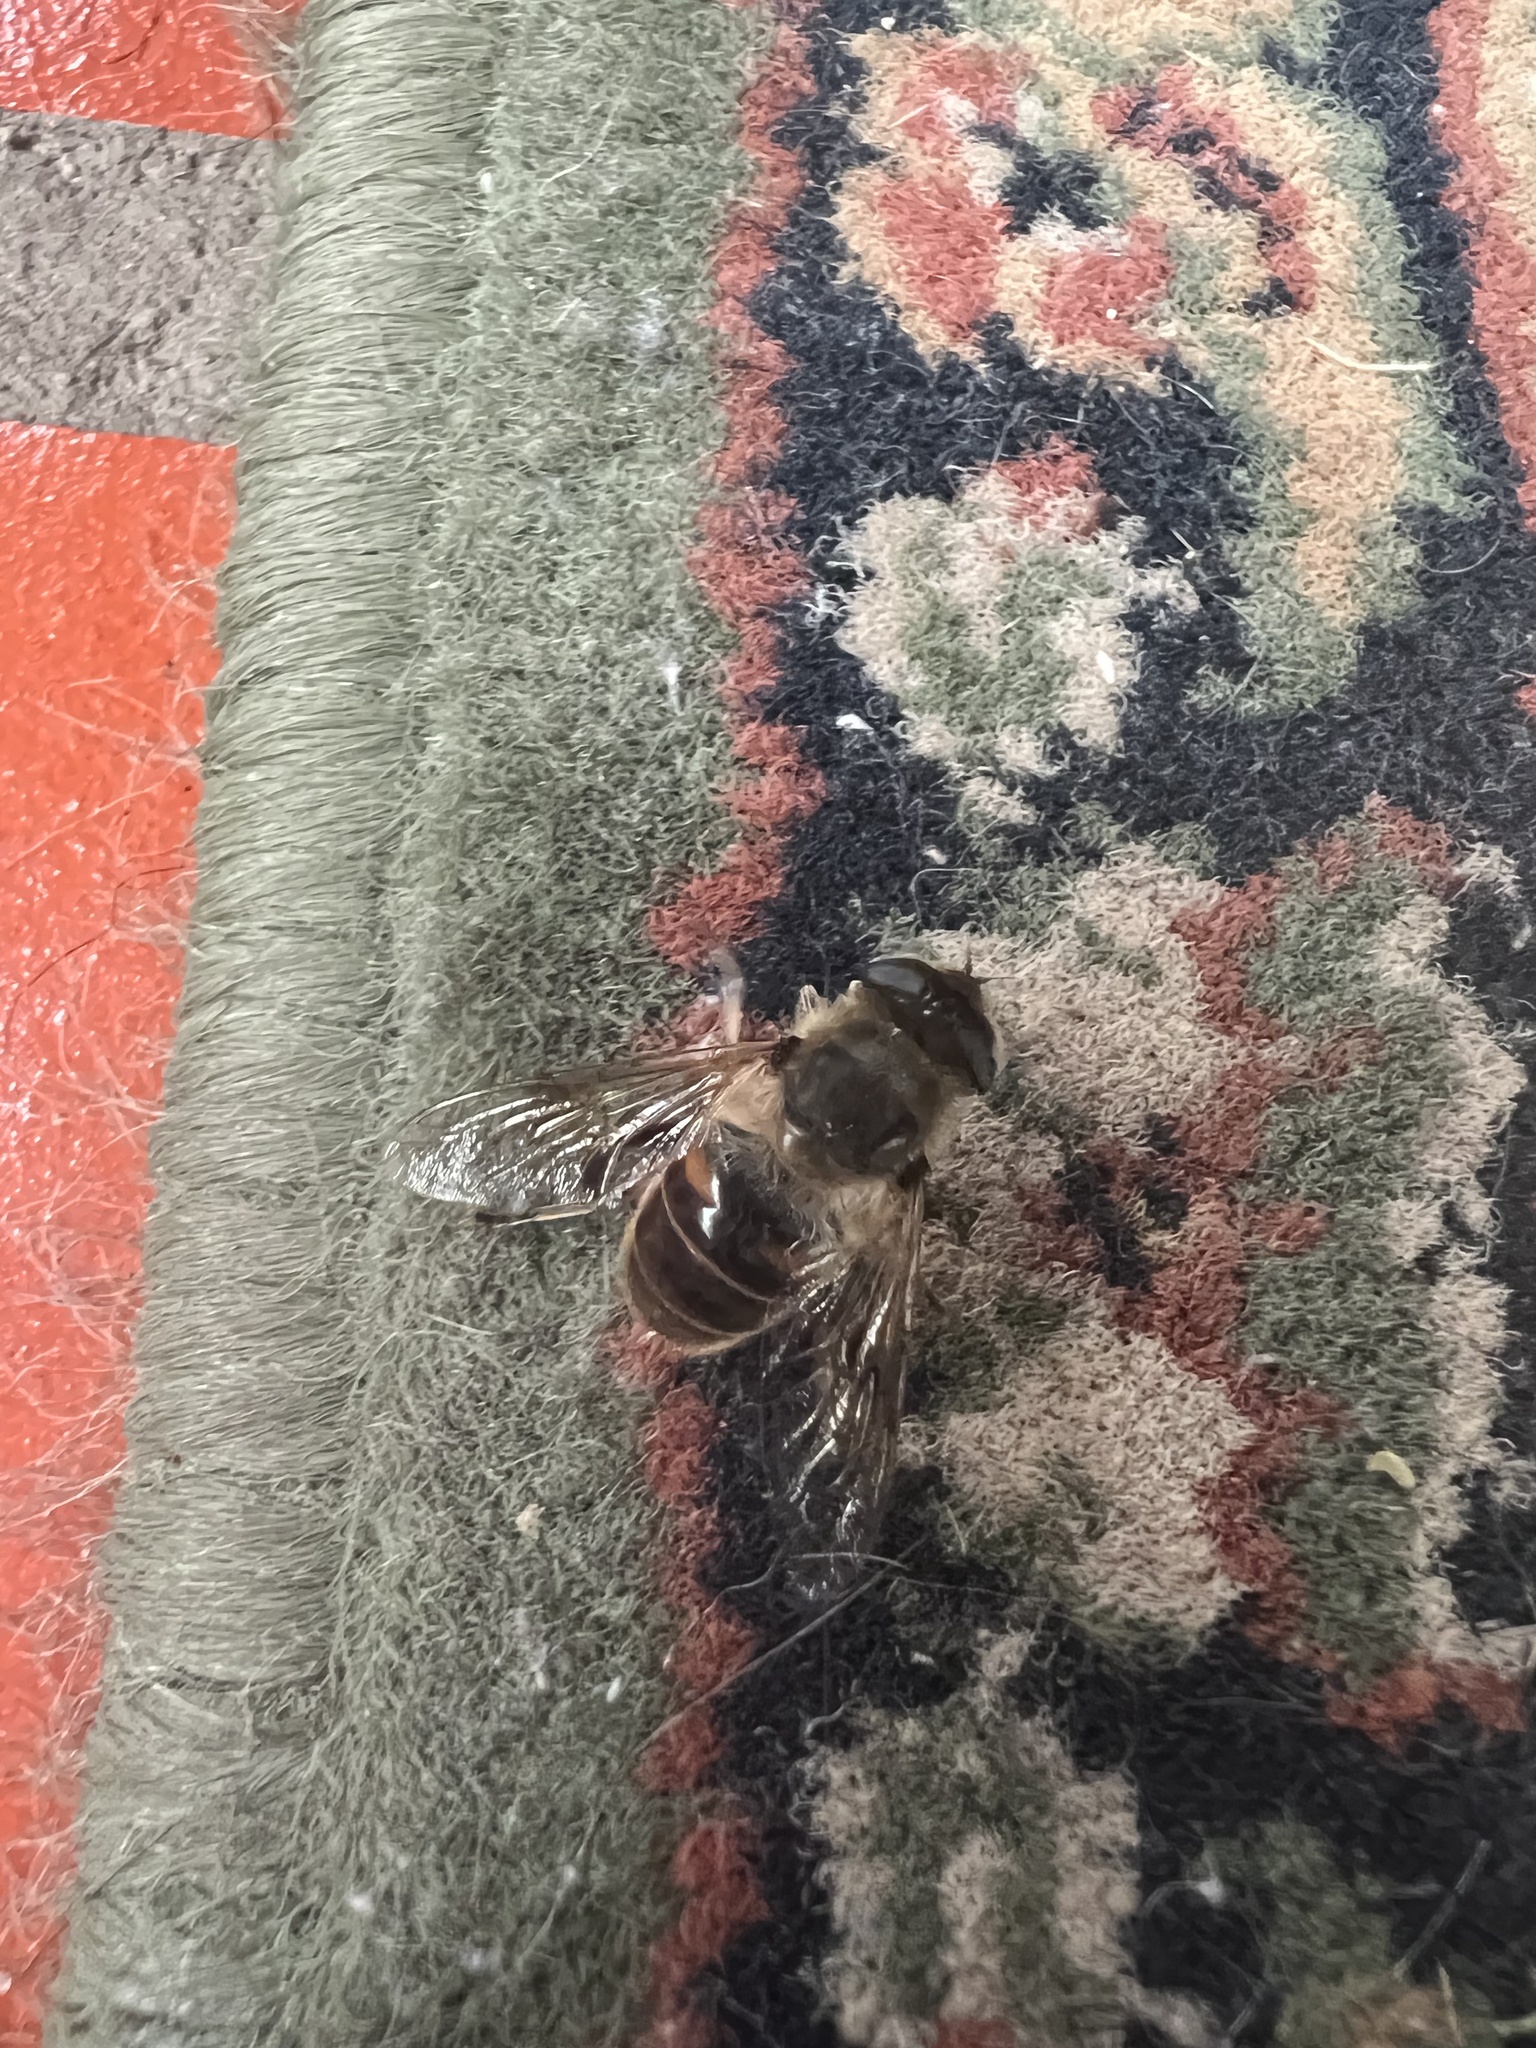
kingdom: Animalia
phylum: Arthropoda
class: Insecta
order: Diptera
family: Syrphidae
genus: Eristalis
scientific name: Eristalis tenax
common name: Drone fly
